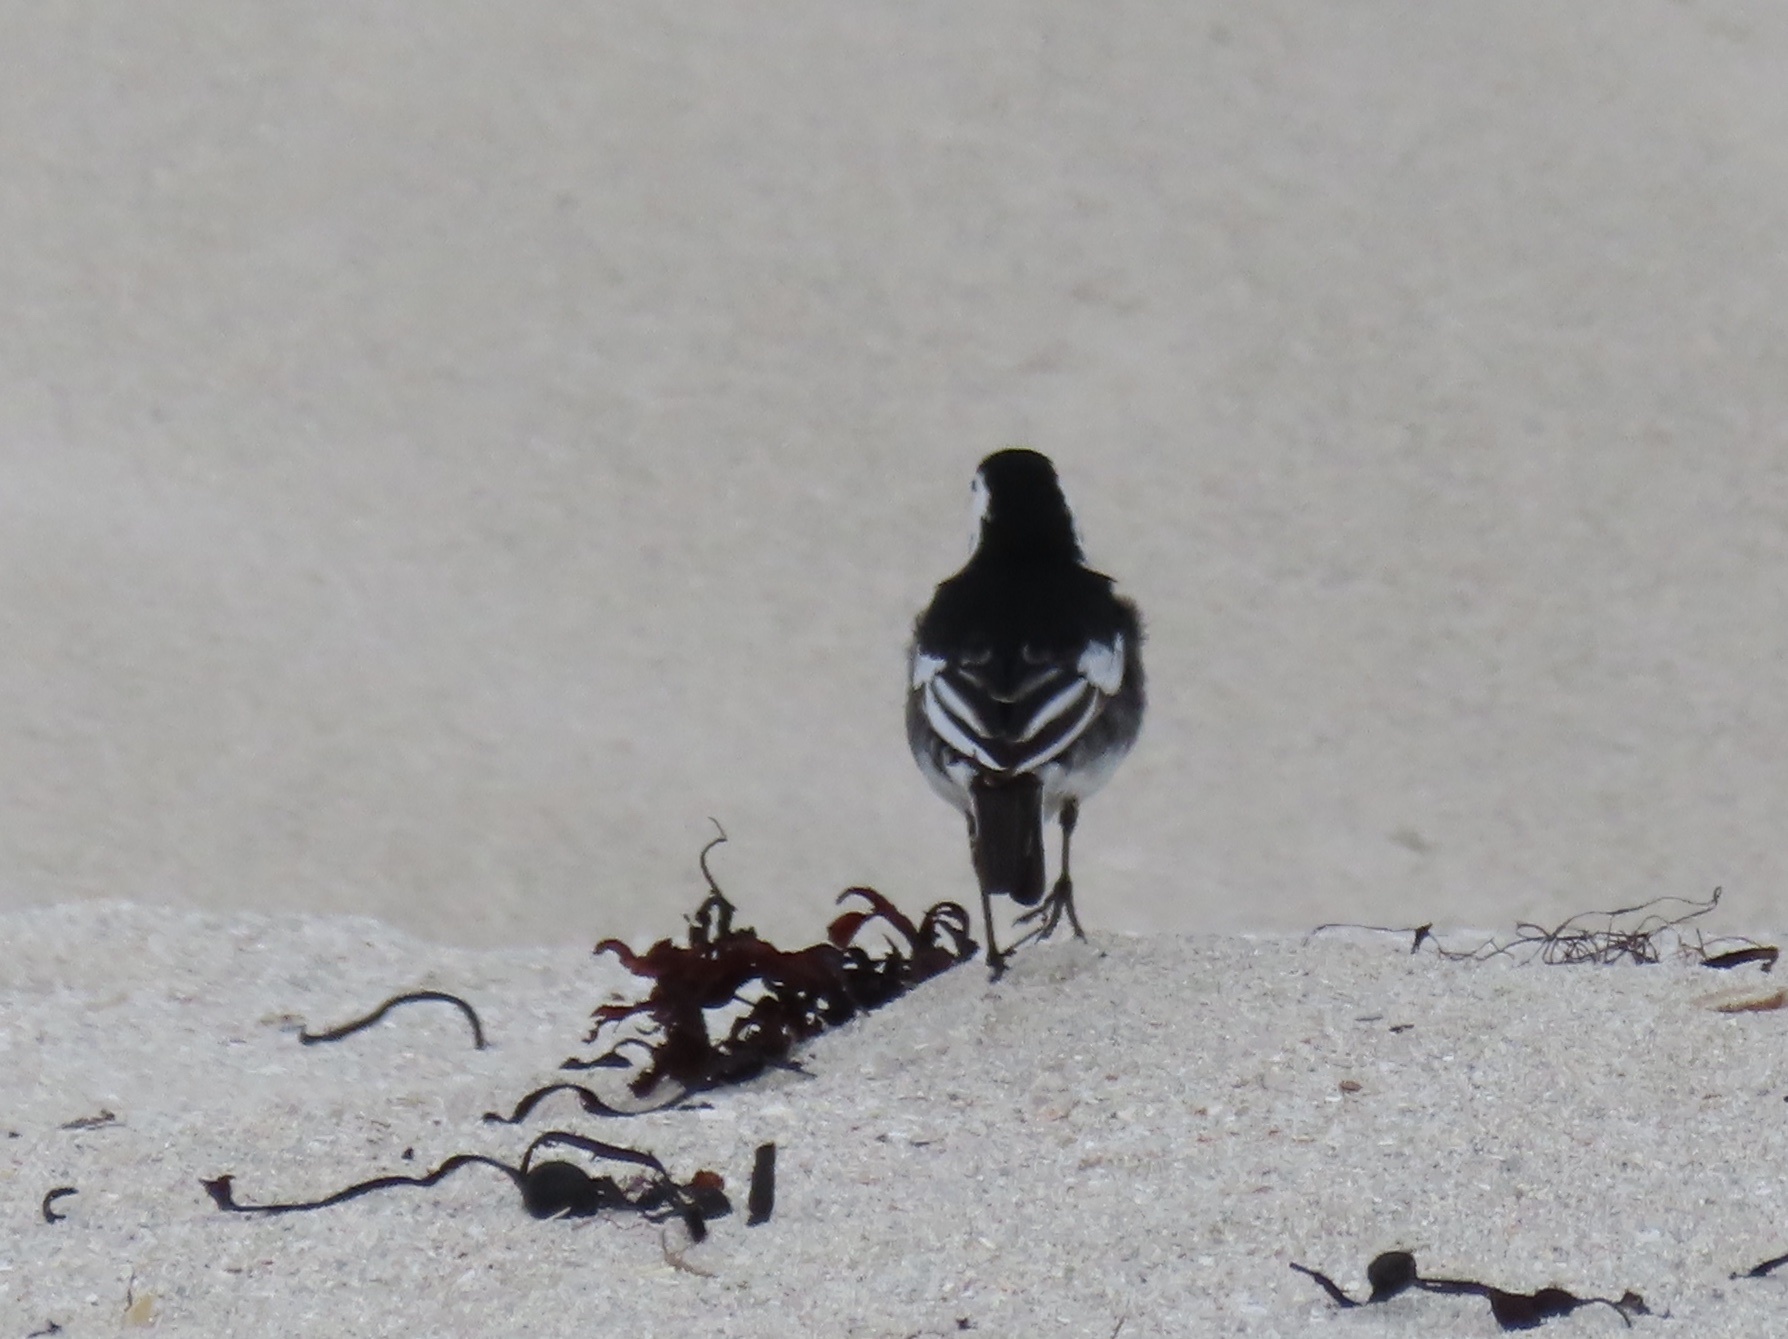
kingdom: Animalia
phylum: Chordata
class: Aves
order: Passeriformes
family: Motacillidae
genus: Motacilla
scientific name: Motacilla alba
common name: White wagtail
